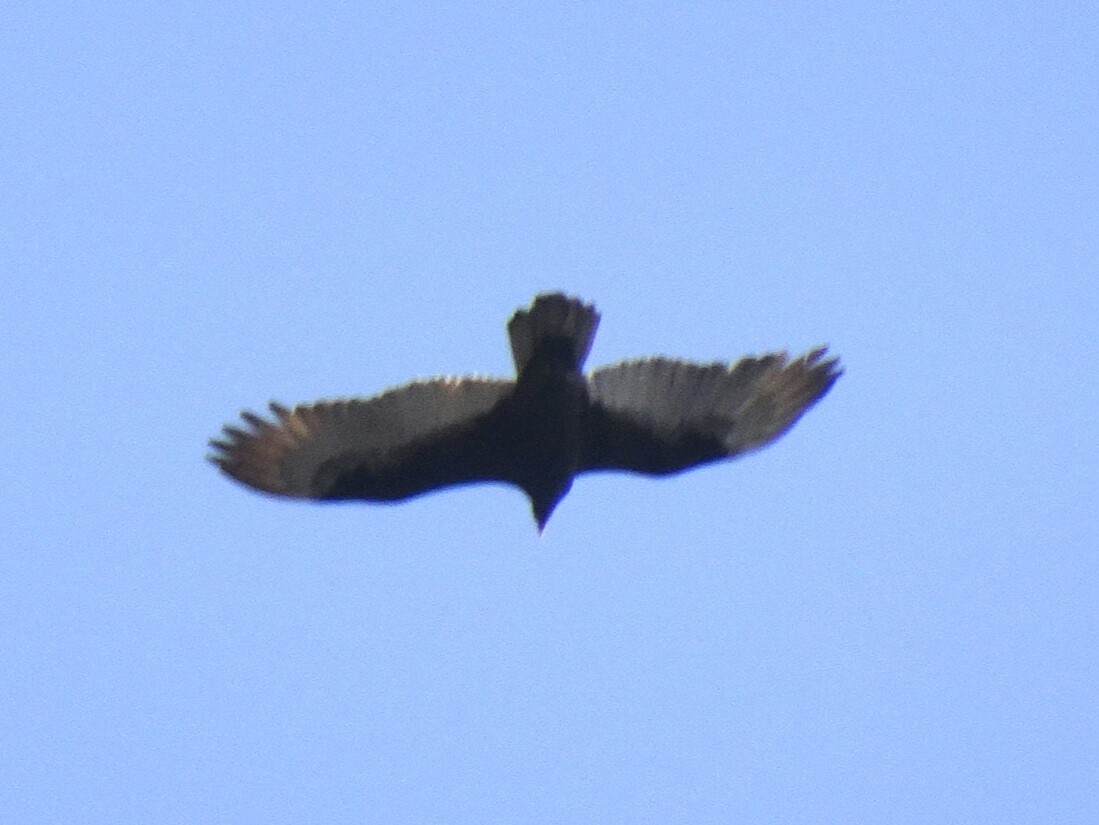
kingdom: Animalia
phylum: Chordata
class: Aves
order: Accipitriformes
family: Cathartidae
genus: Cathartes
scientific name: Cathartes aura
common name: Turkey vulture
